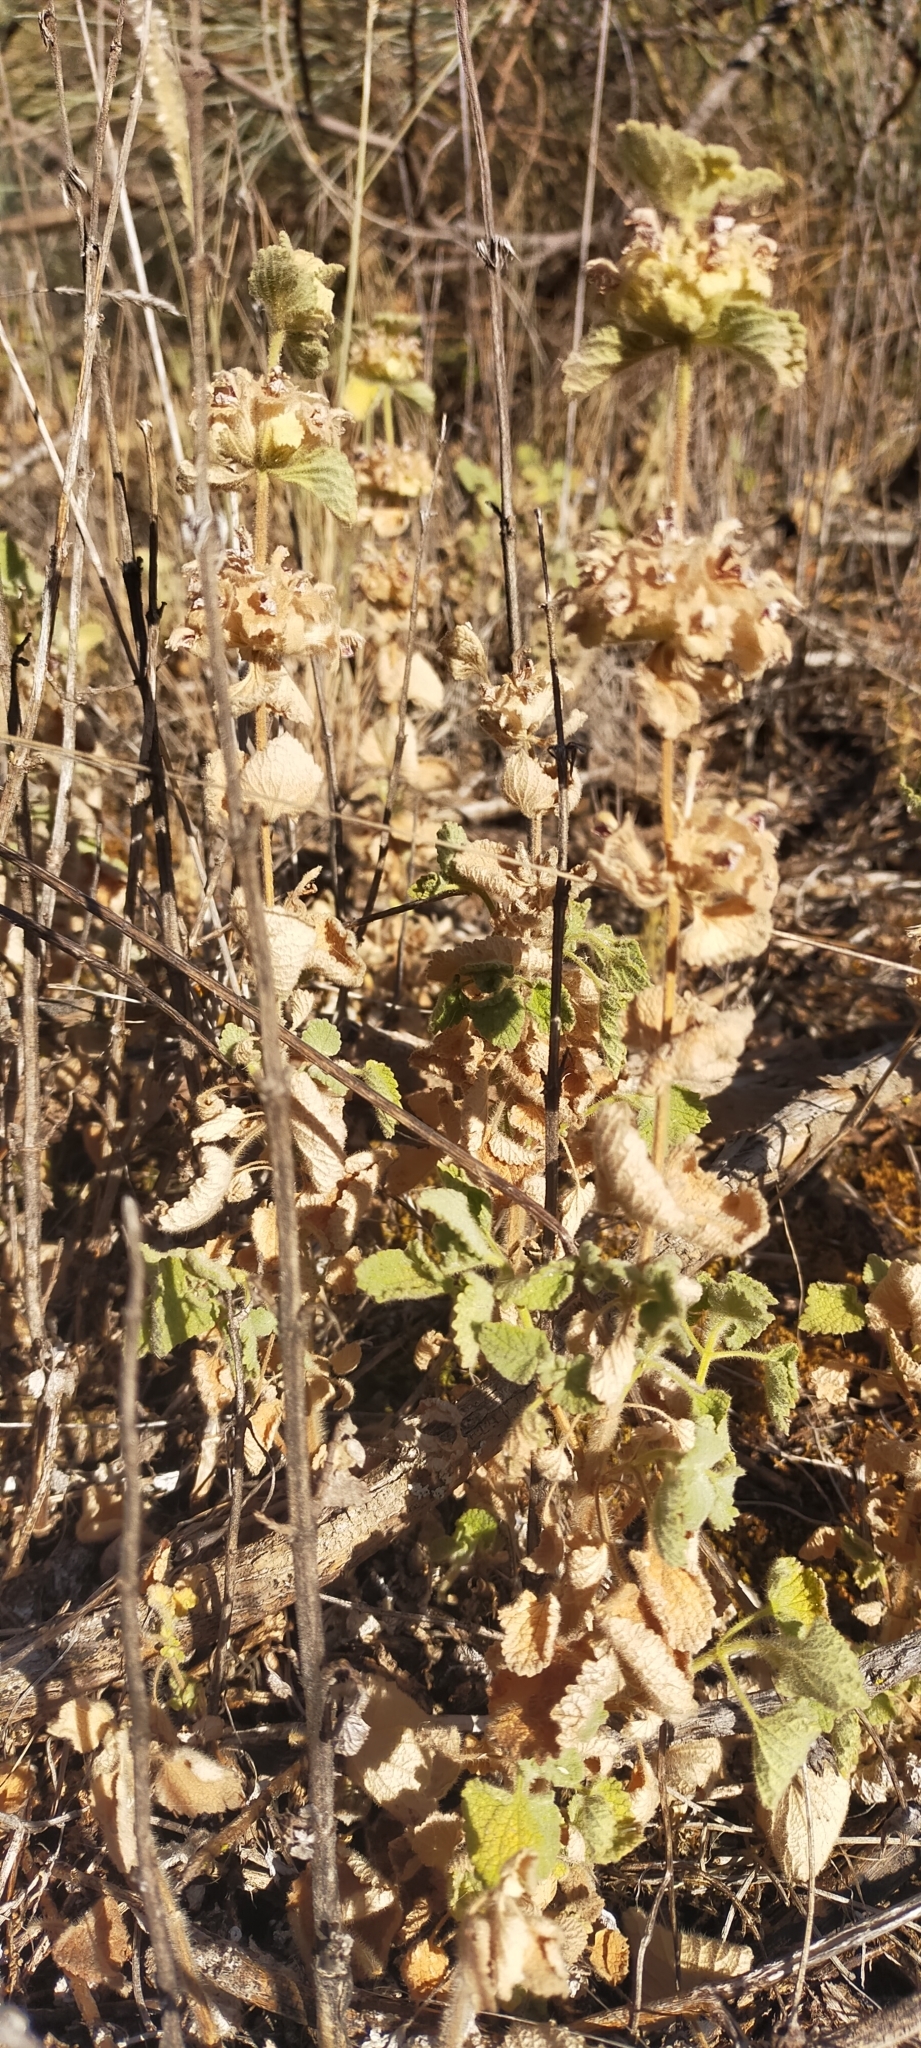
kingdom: Plantae
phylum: Tracheophyta
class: Magnoliopsida
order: Lamiales
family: Lamiaceae
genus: Pseudodictamnus
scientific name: Pseudodictamnus hirsutus
